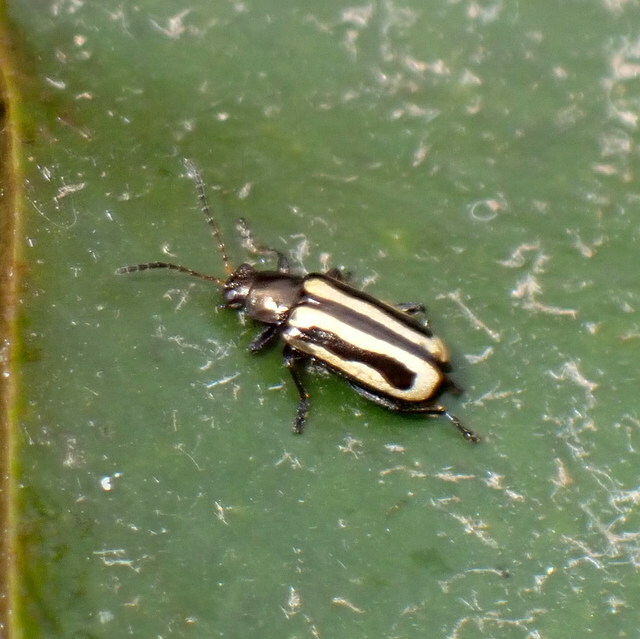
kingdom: Animalia
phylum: Arthropoda
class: Insecta
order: Coleoptera
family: Chrysomelidae
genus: Agasicles
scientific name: Agasicles hygrophila
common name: Alligatorweed flea beetle
